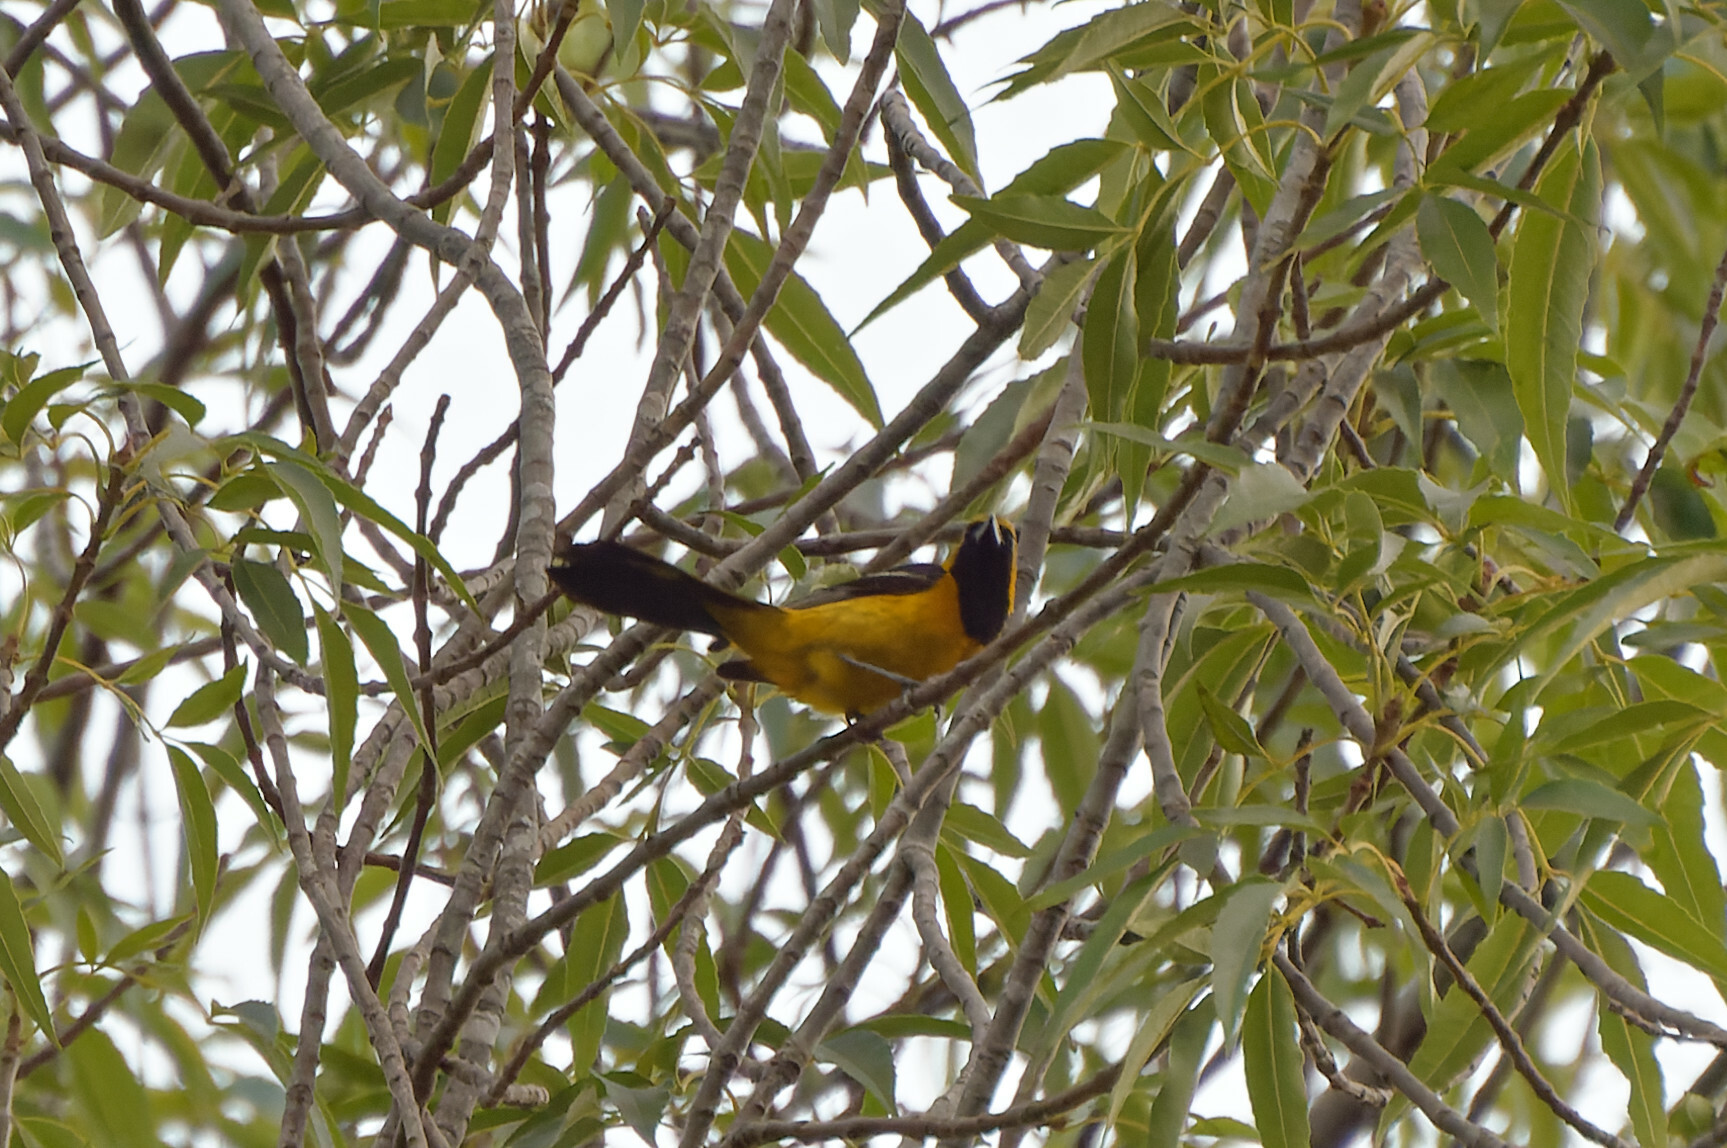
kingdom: Animalia
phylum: Chordata
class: Aves
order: Passeriformes
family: Icteridae
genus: Icterus
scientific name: Icterus cucullatus
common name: Hooded oriole
